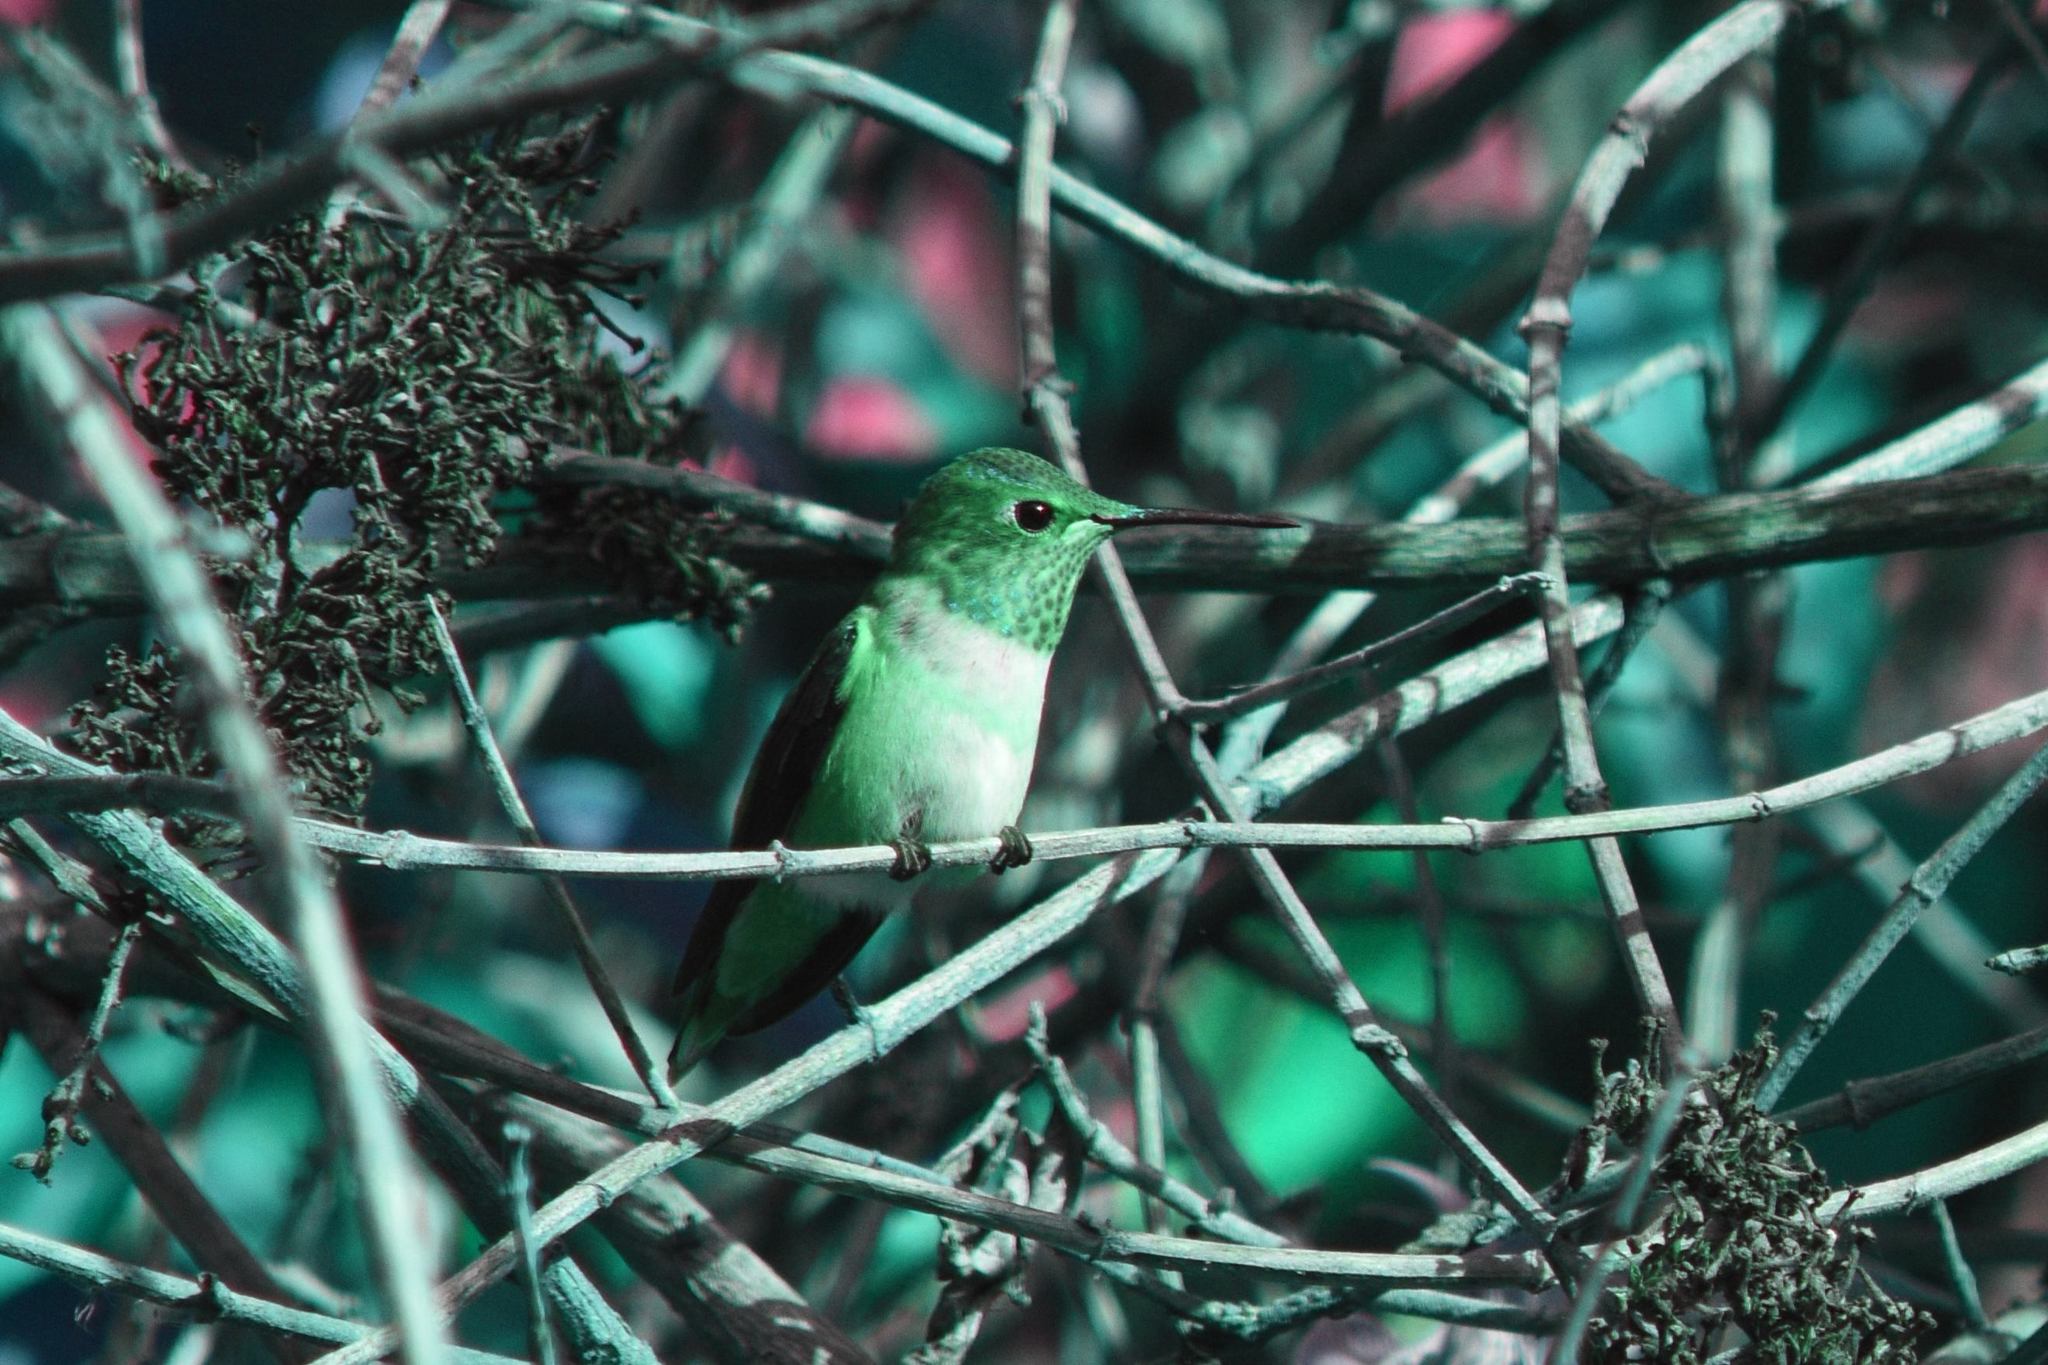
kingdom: Animalia
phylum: Chordata
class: Aves
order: Apodiformes
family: Trochilidae
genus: Selasphorus
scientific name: Selasphorus sasin
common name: Allen's hummingbird
